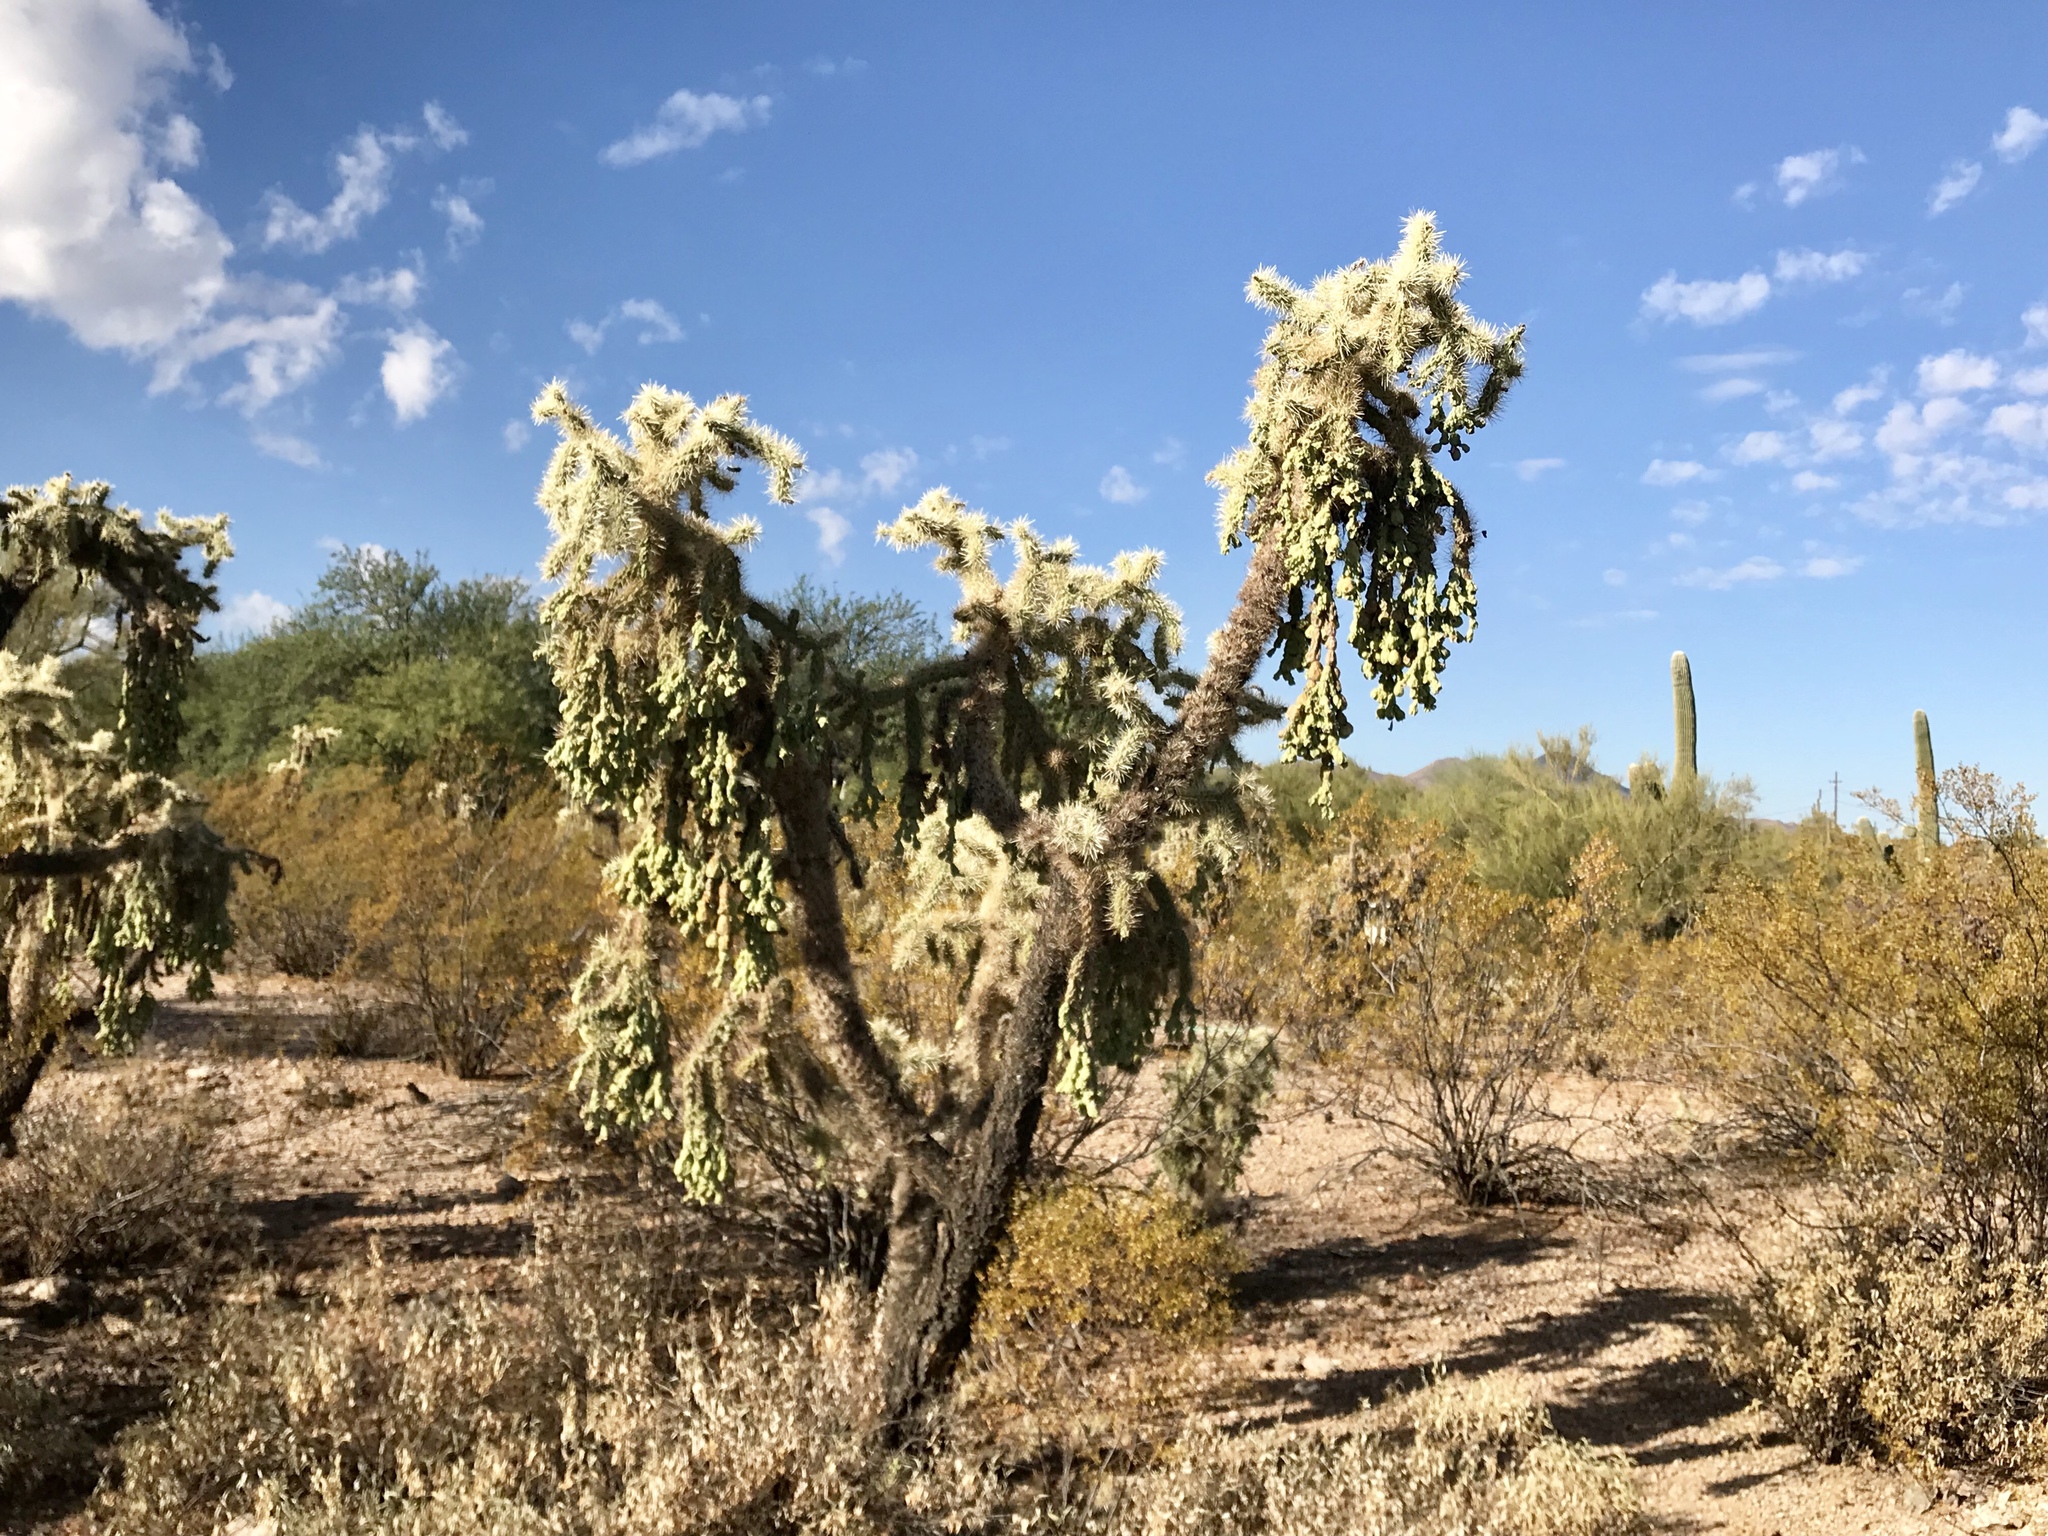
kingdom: Plantae
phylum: Tracheophyta
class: Magnoliopsida
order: Caryophyllales
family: Cactaceae
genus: Cylindropuntia
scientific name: Cylindropuntia fulgida
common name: Jumping cholla
